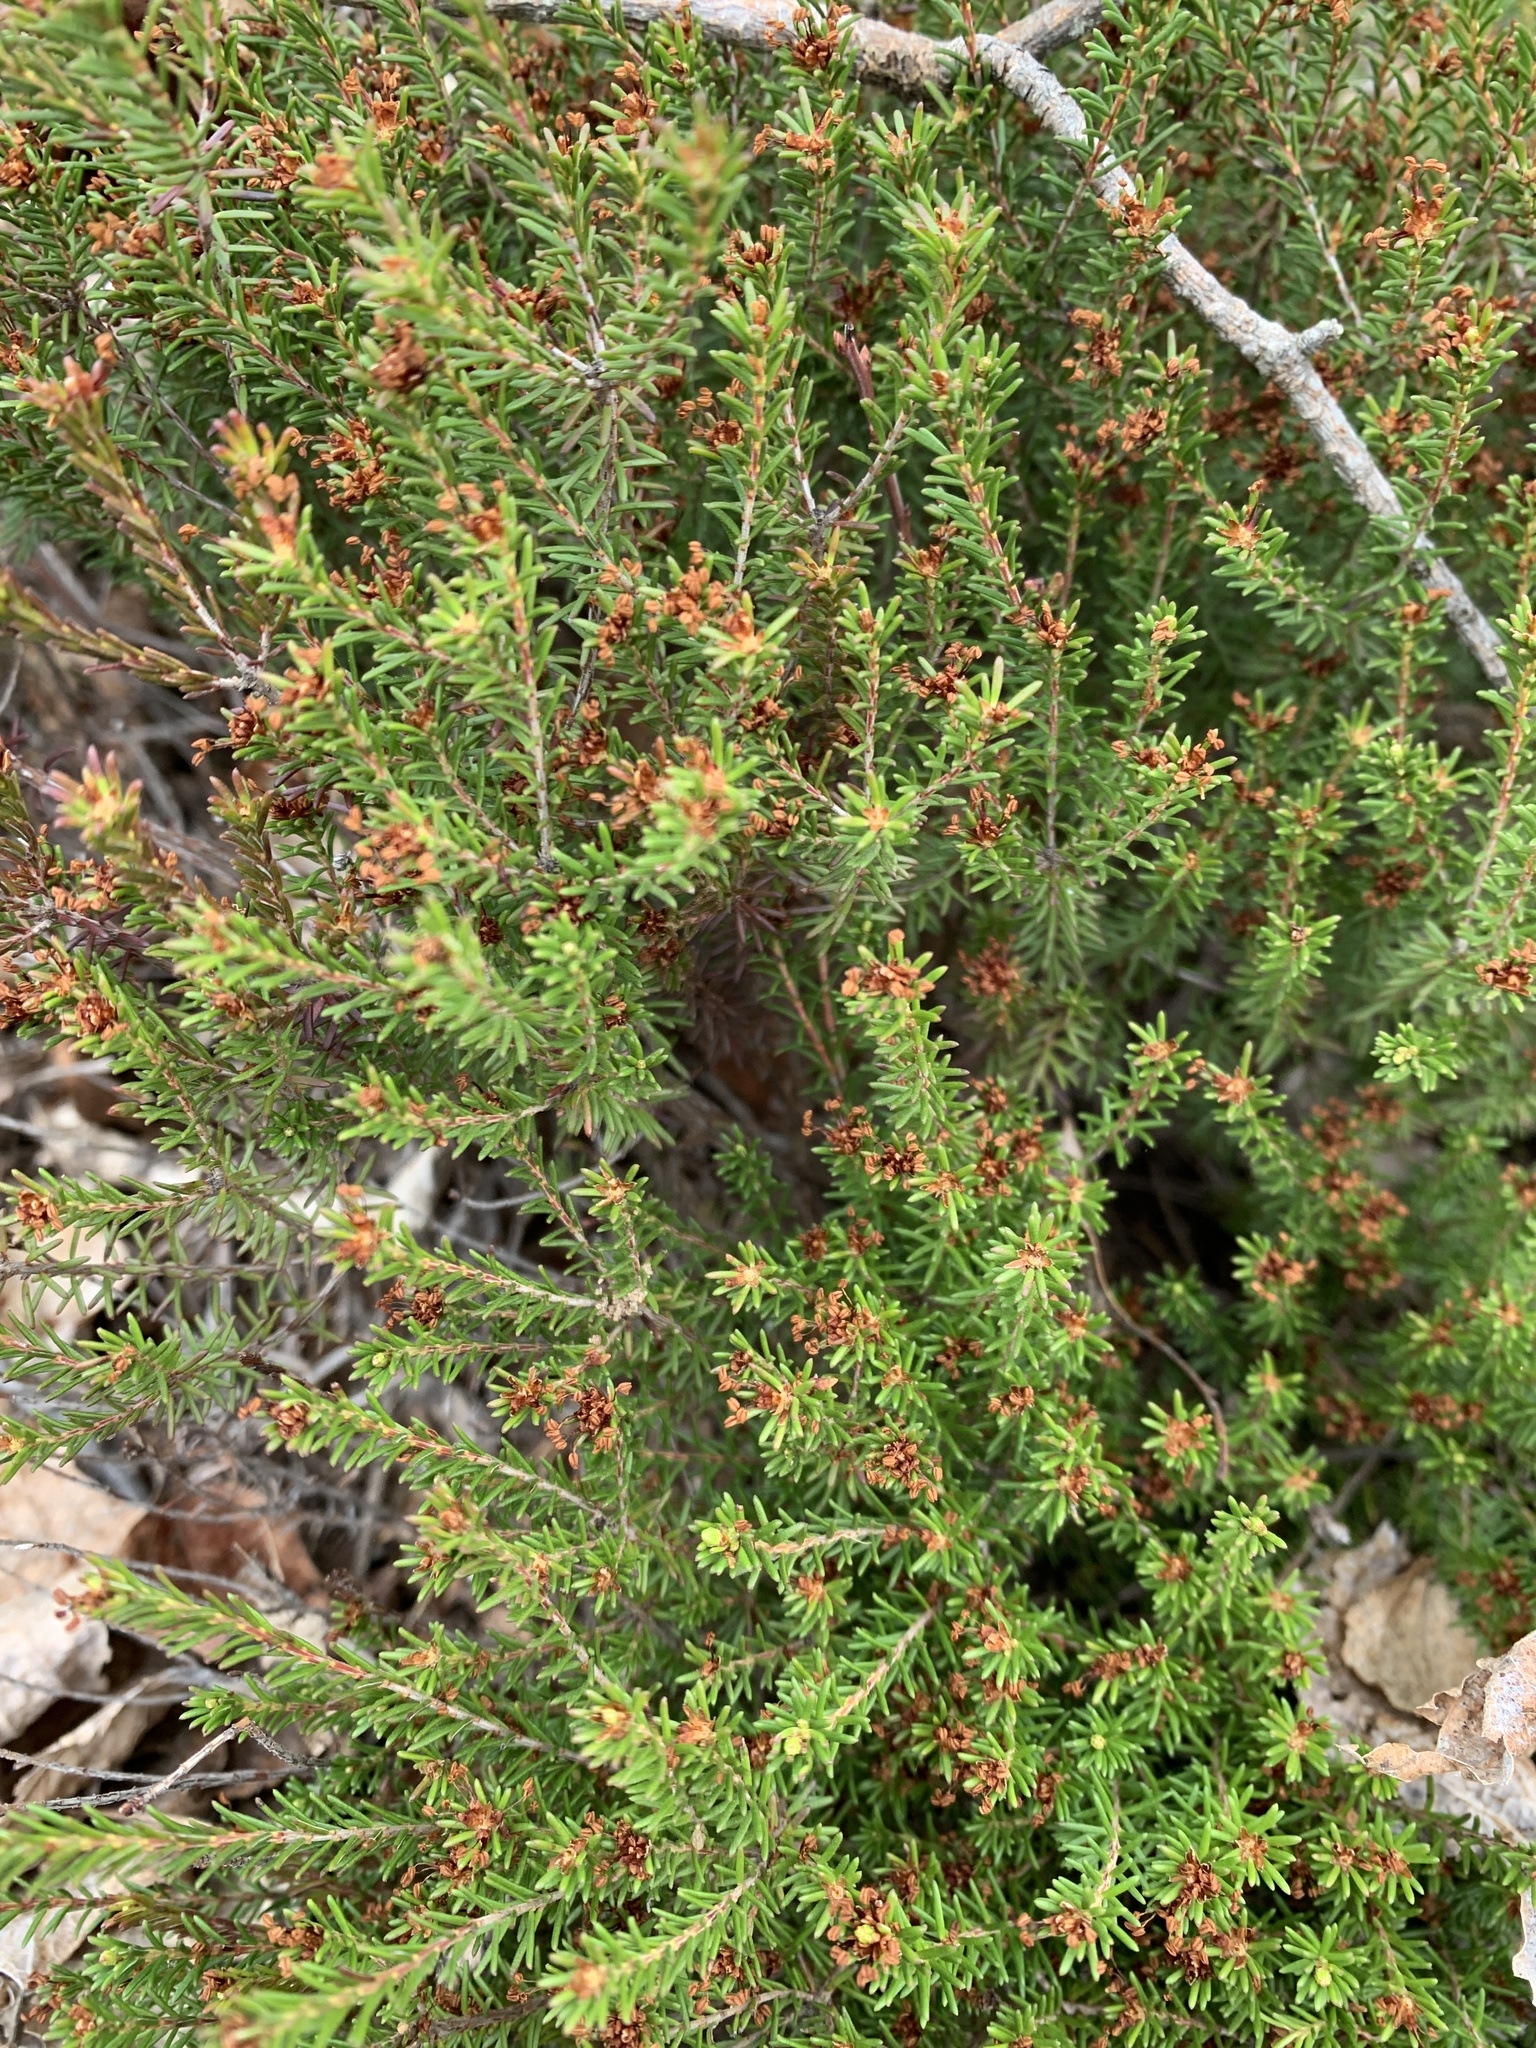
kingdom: Plantae
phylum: Tracheophyta
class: Magnoliopsida
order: Ericales
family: Ericaceae
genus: Corema
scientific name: Corema conradii
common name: Broom-crowberry
